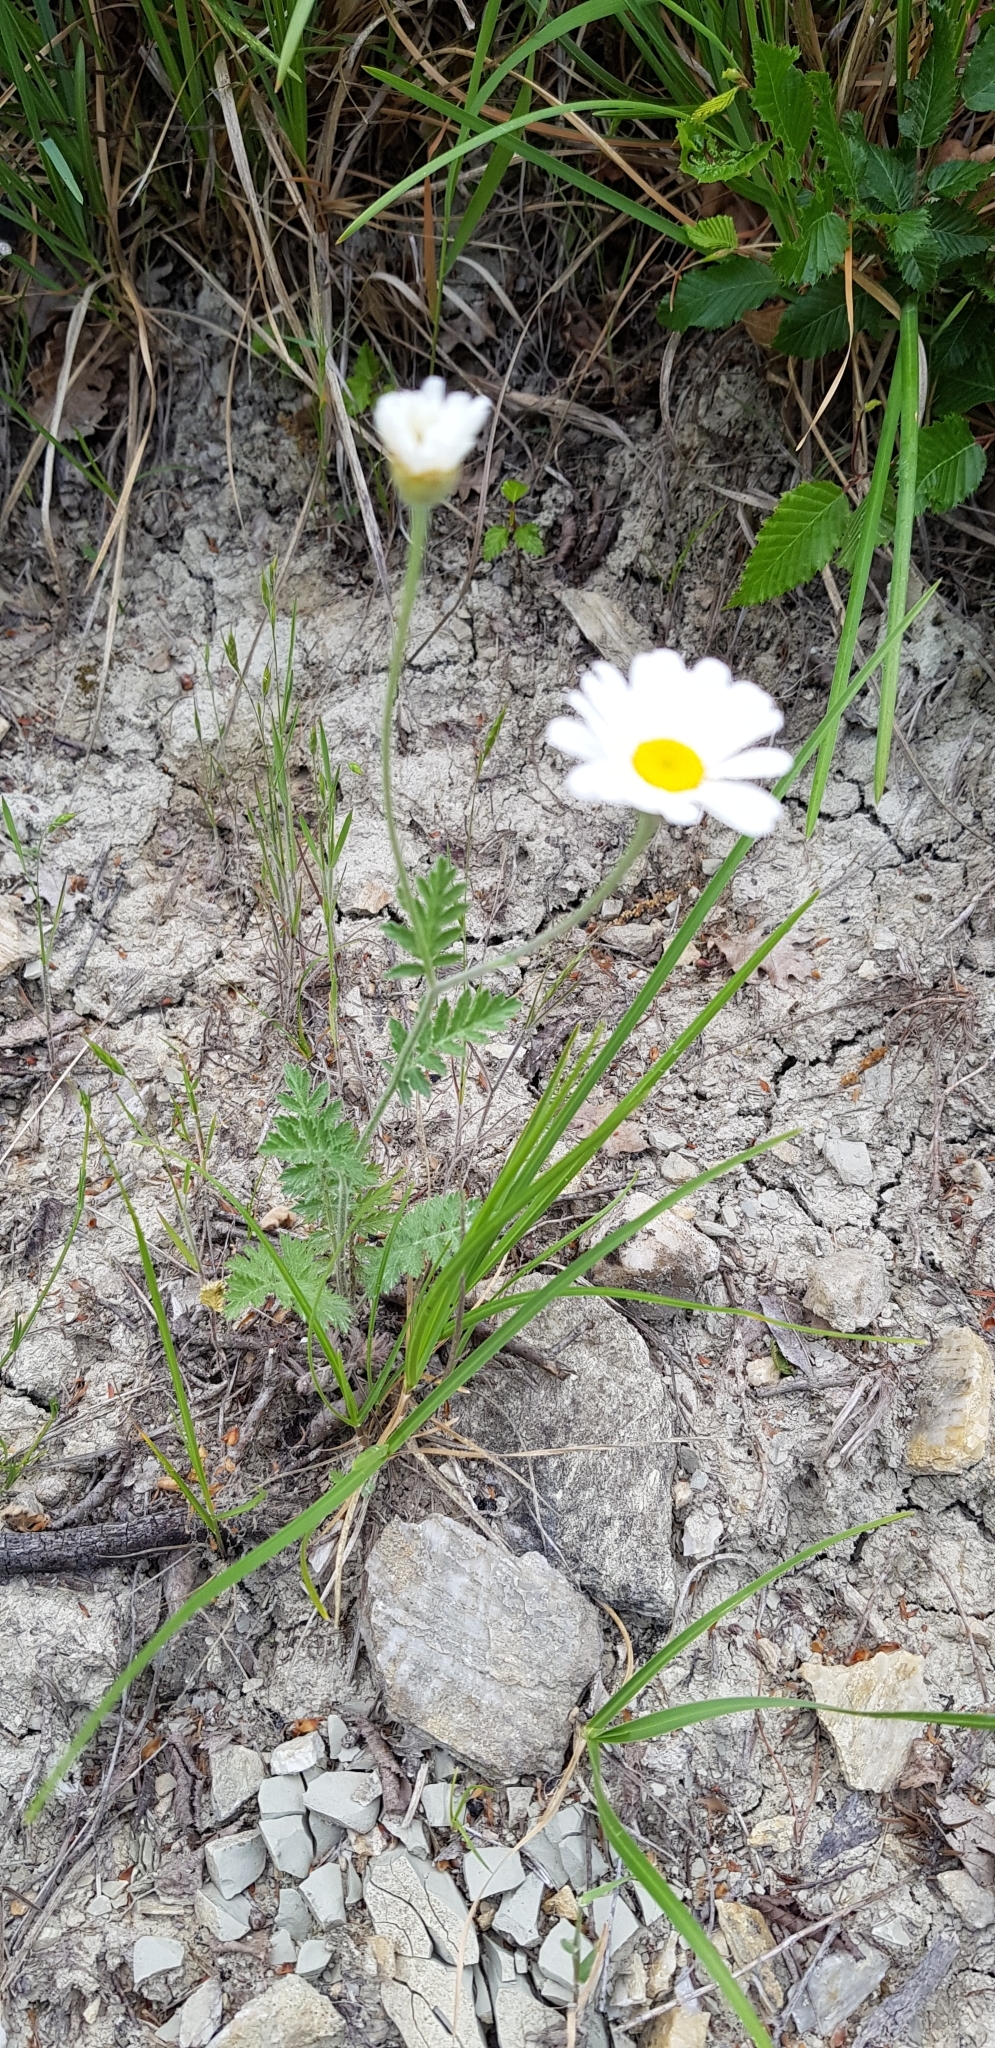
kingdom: Plantae
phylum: Tracheophyta
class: Magnoliopsida
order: Asterales
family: Asteraceae
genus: Tanacetum
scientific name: Tanacetum poteriifolium
